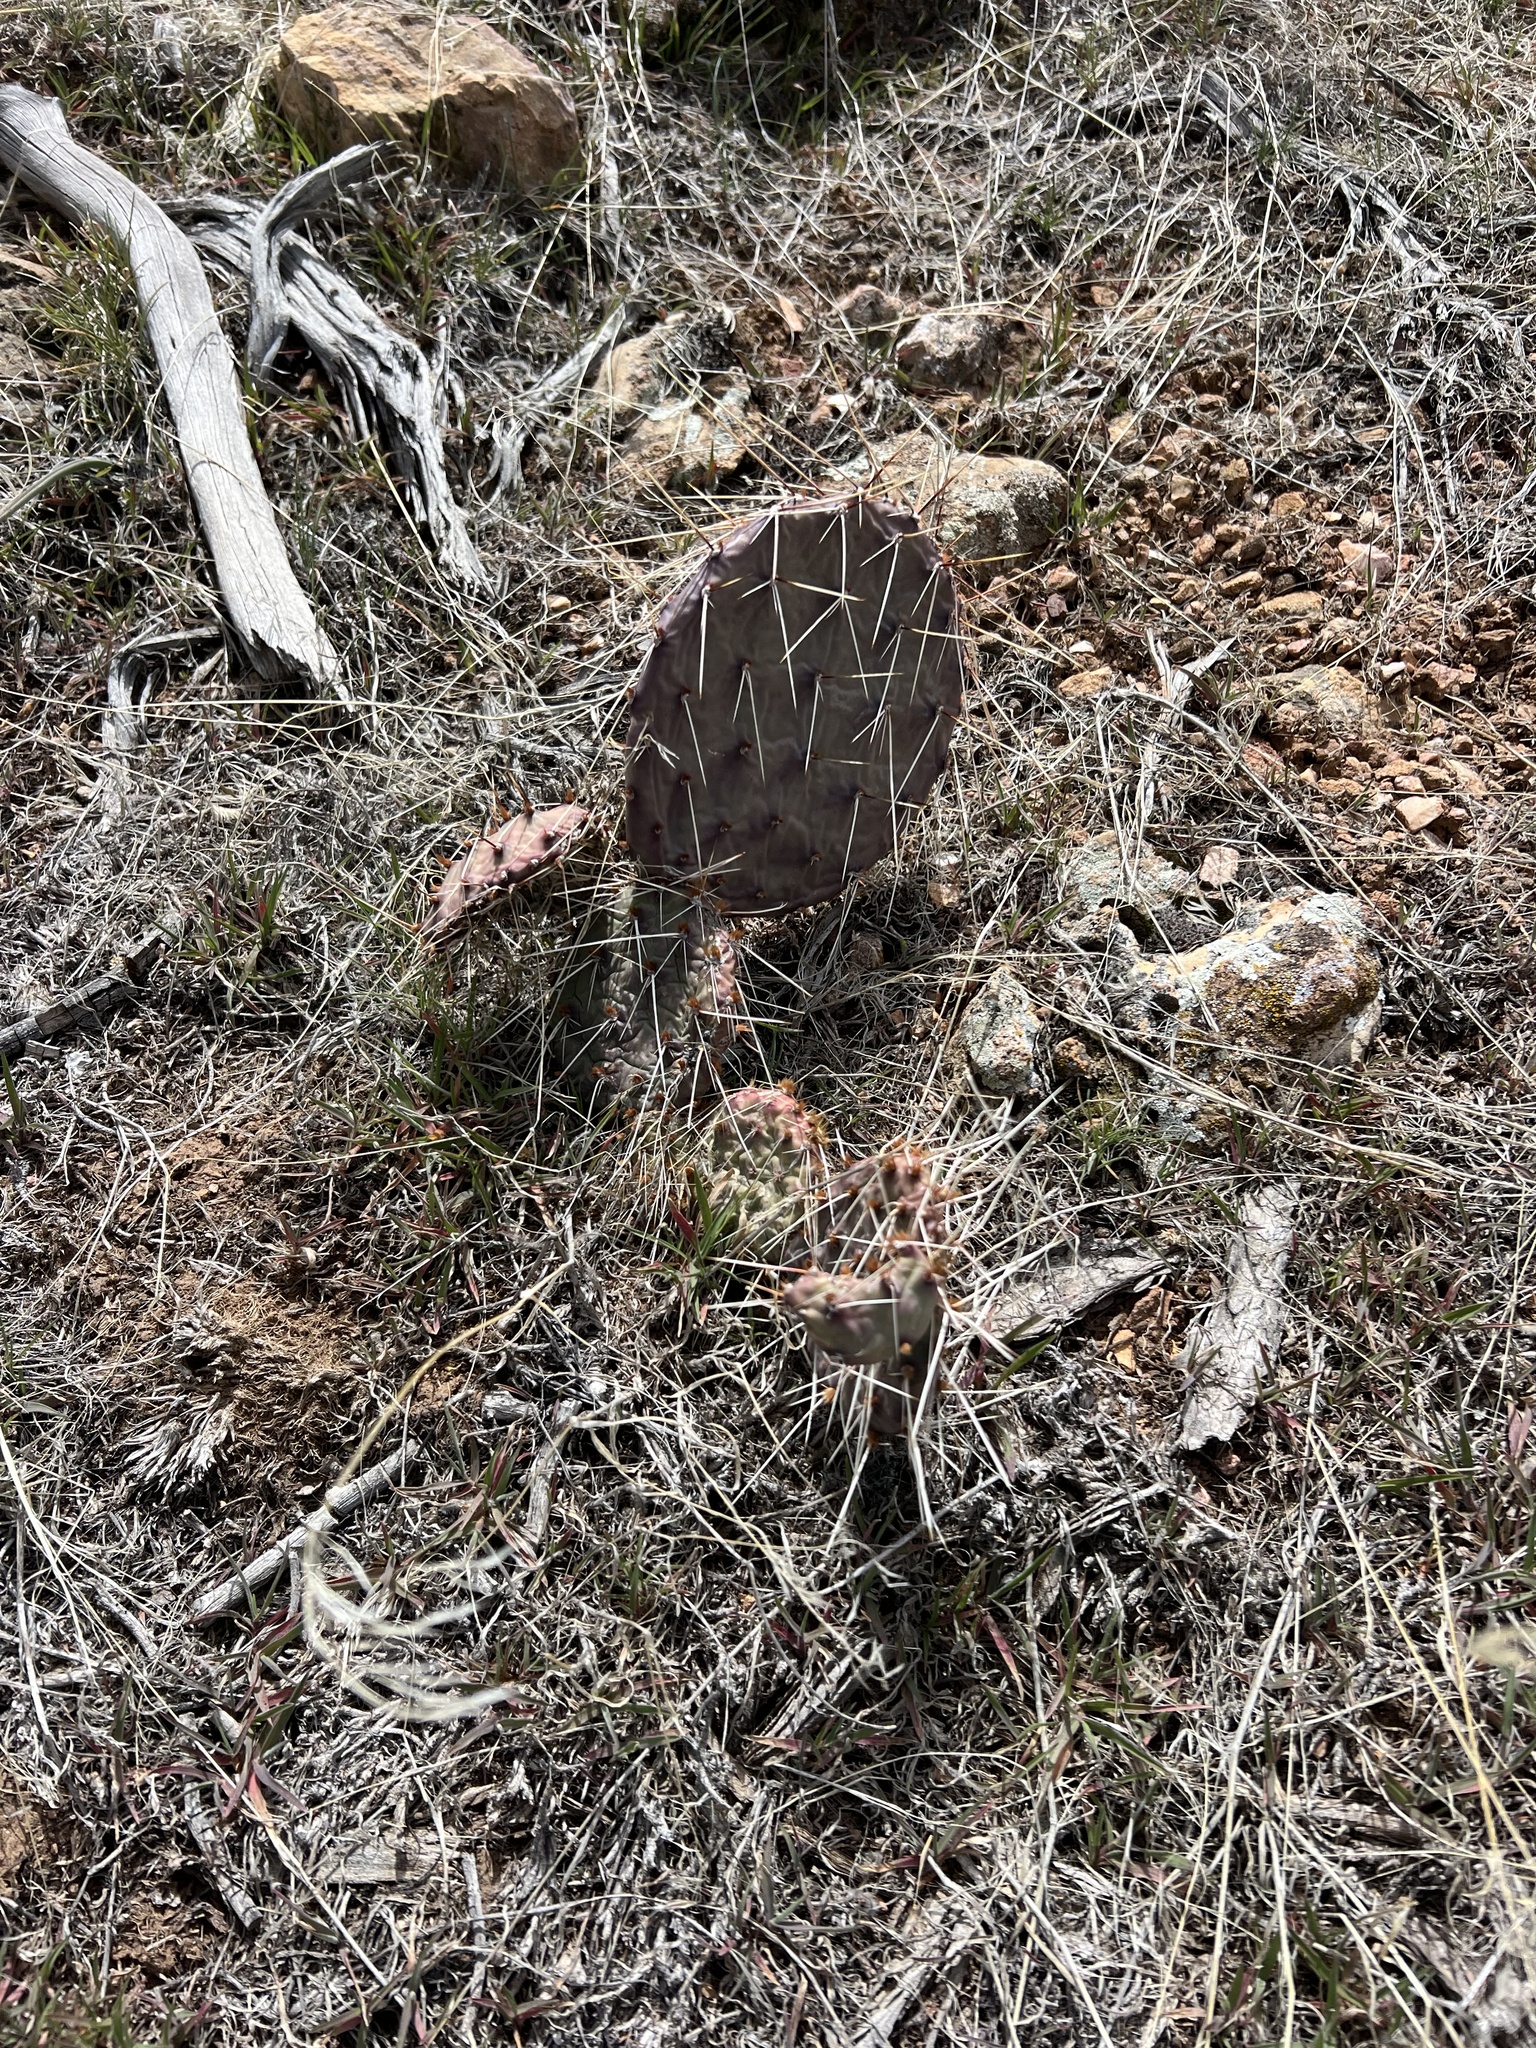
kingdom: Plantae
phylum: Tracheophyta
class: Magnoliopsida
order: Caryophyllales
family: Cactaceae
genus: Opuntia
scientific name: Opuntia phaeacantha
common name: New mexico prickly-pear
